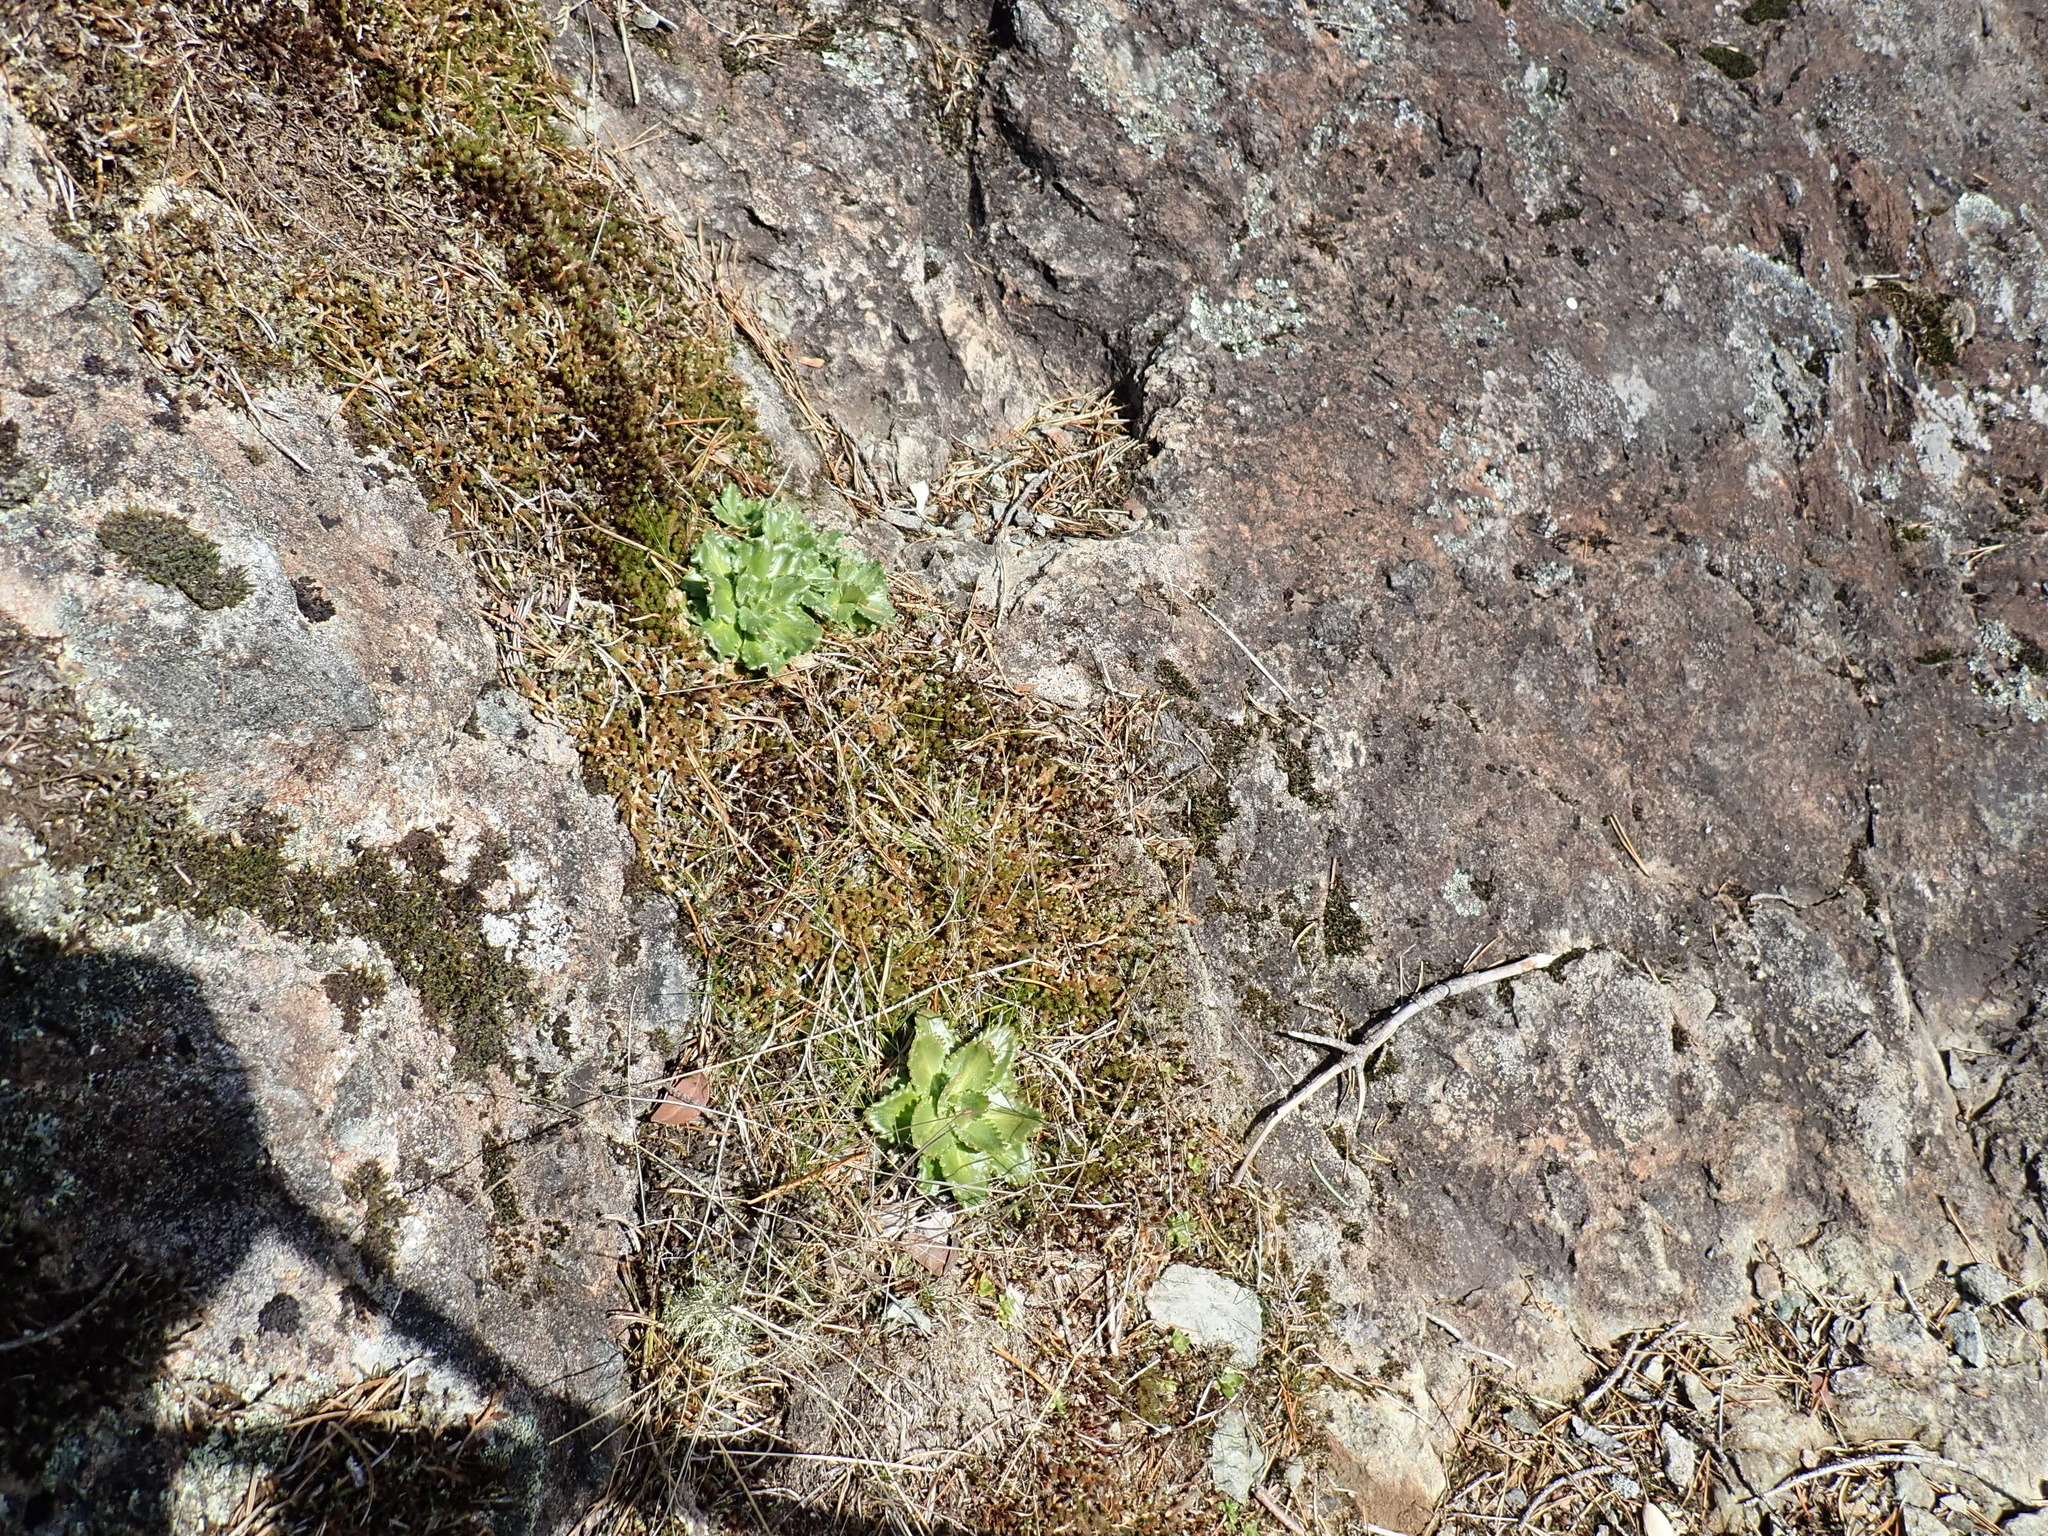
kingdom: Plantae
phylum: Tracheophyta
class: Magnoliopsida
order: Saxifragales
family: Saxifragaceae
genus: Micranthes
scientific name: Micranthes ferruginea
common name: Rusty saxifrage
